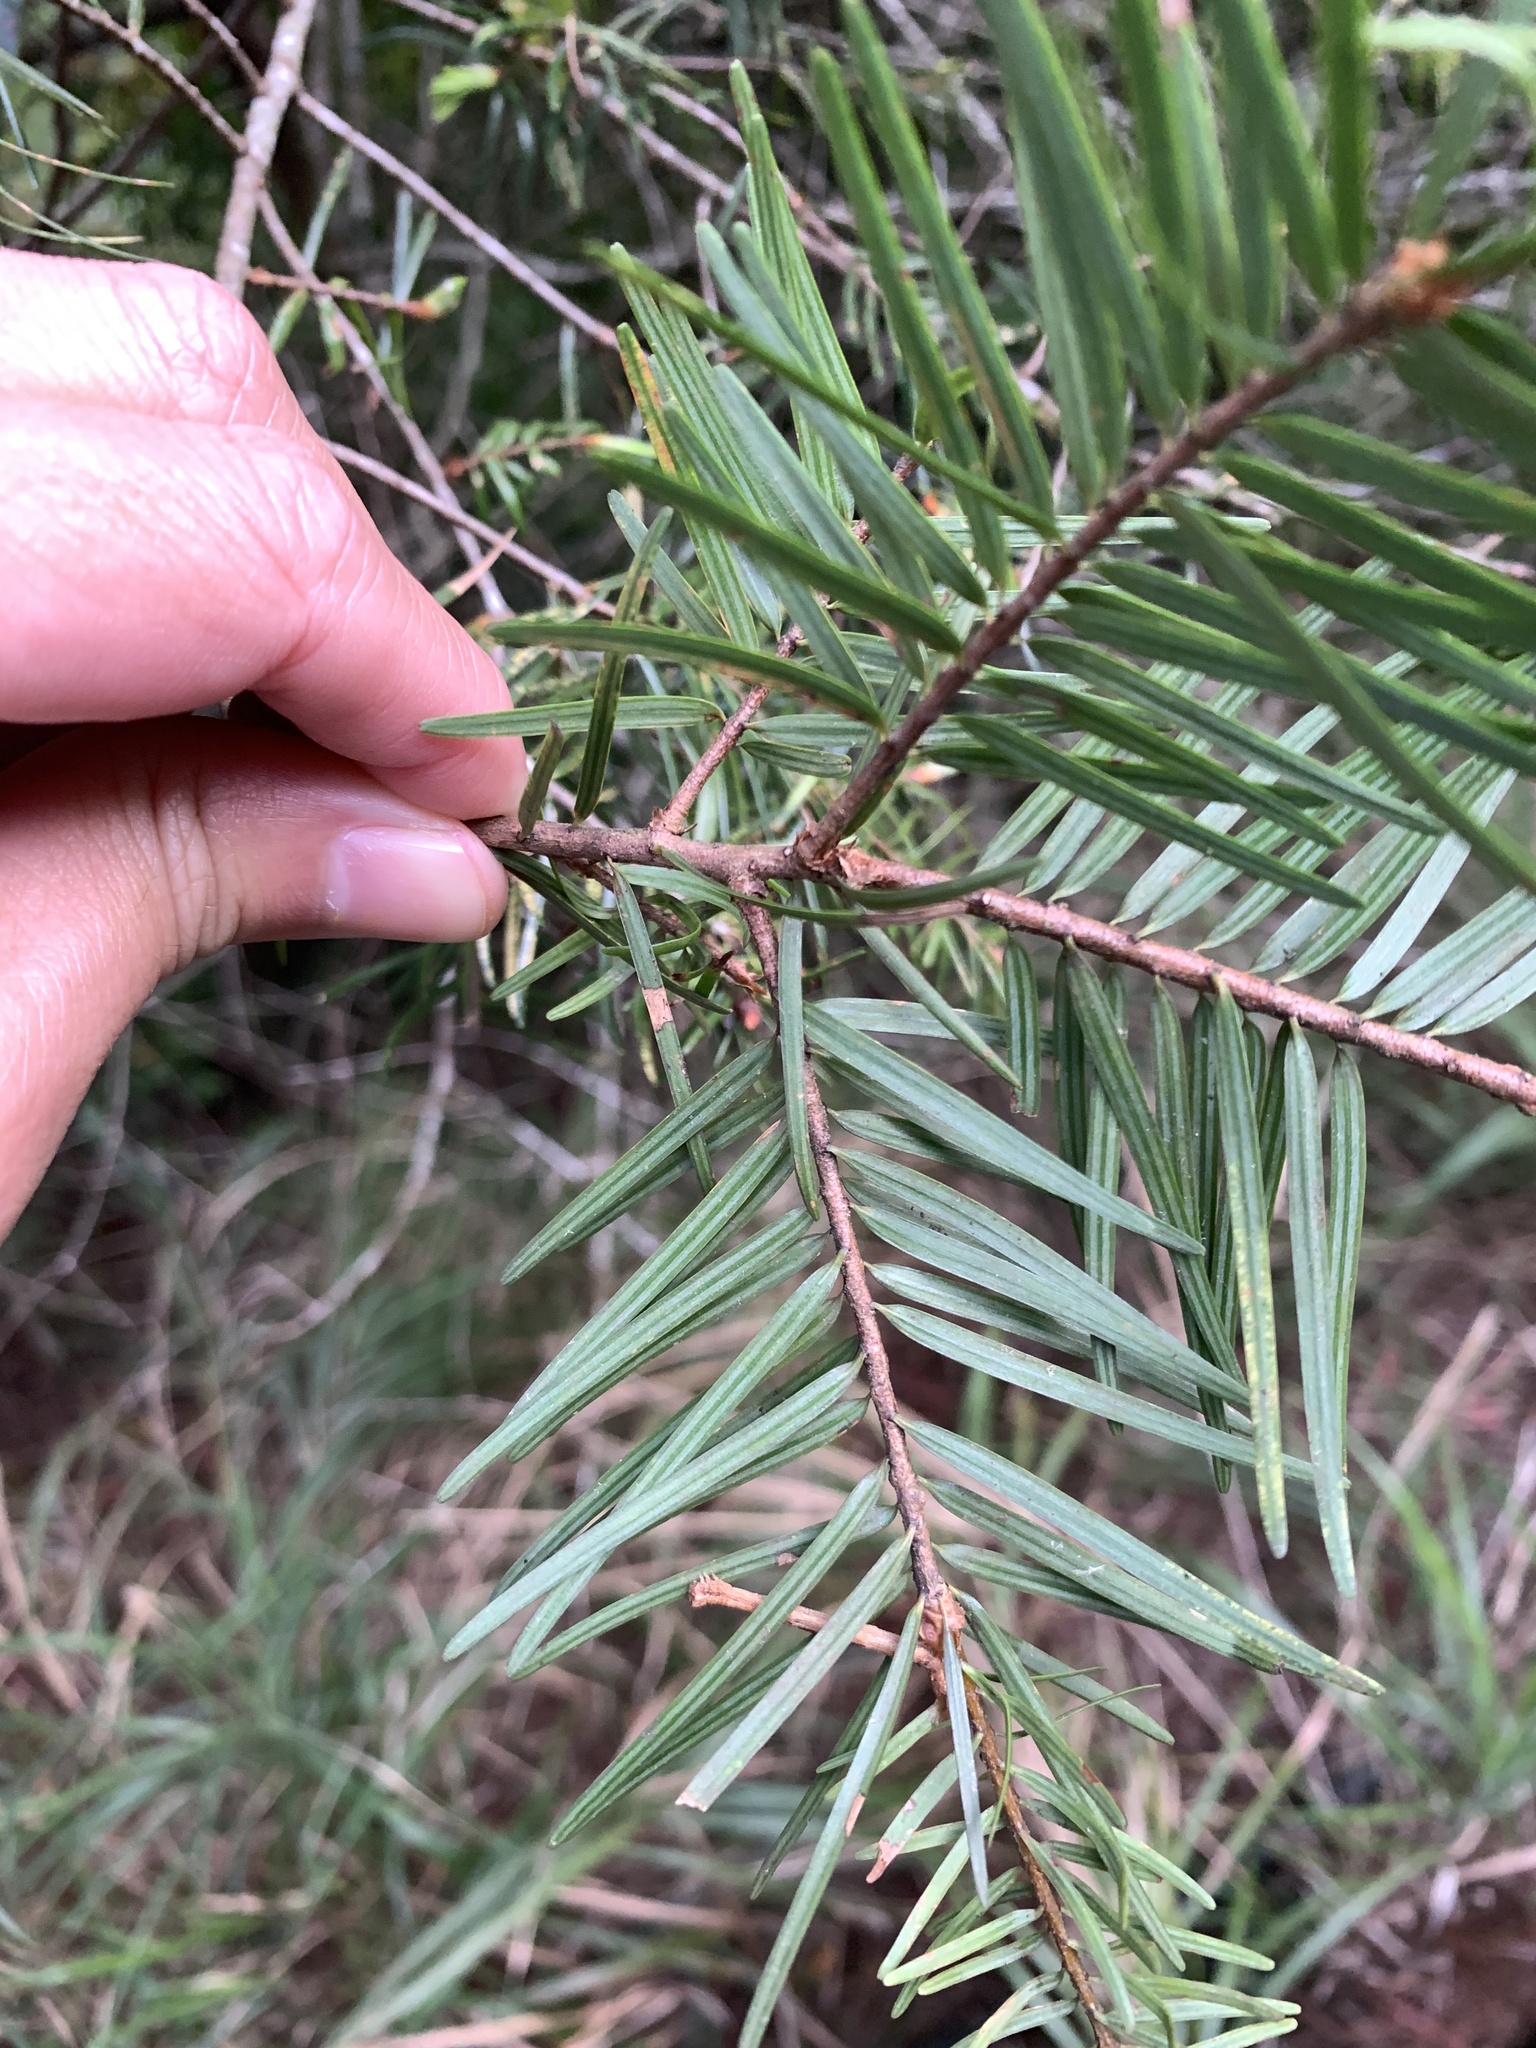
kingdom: Plantae
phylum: Tracheophyta
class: Pinopsida
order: Pinales
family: Pinaceae
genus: Pseudotsuga
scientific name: Pseudotsuga sinensis
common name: Chinese douglas-fir
